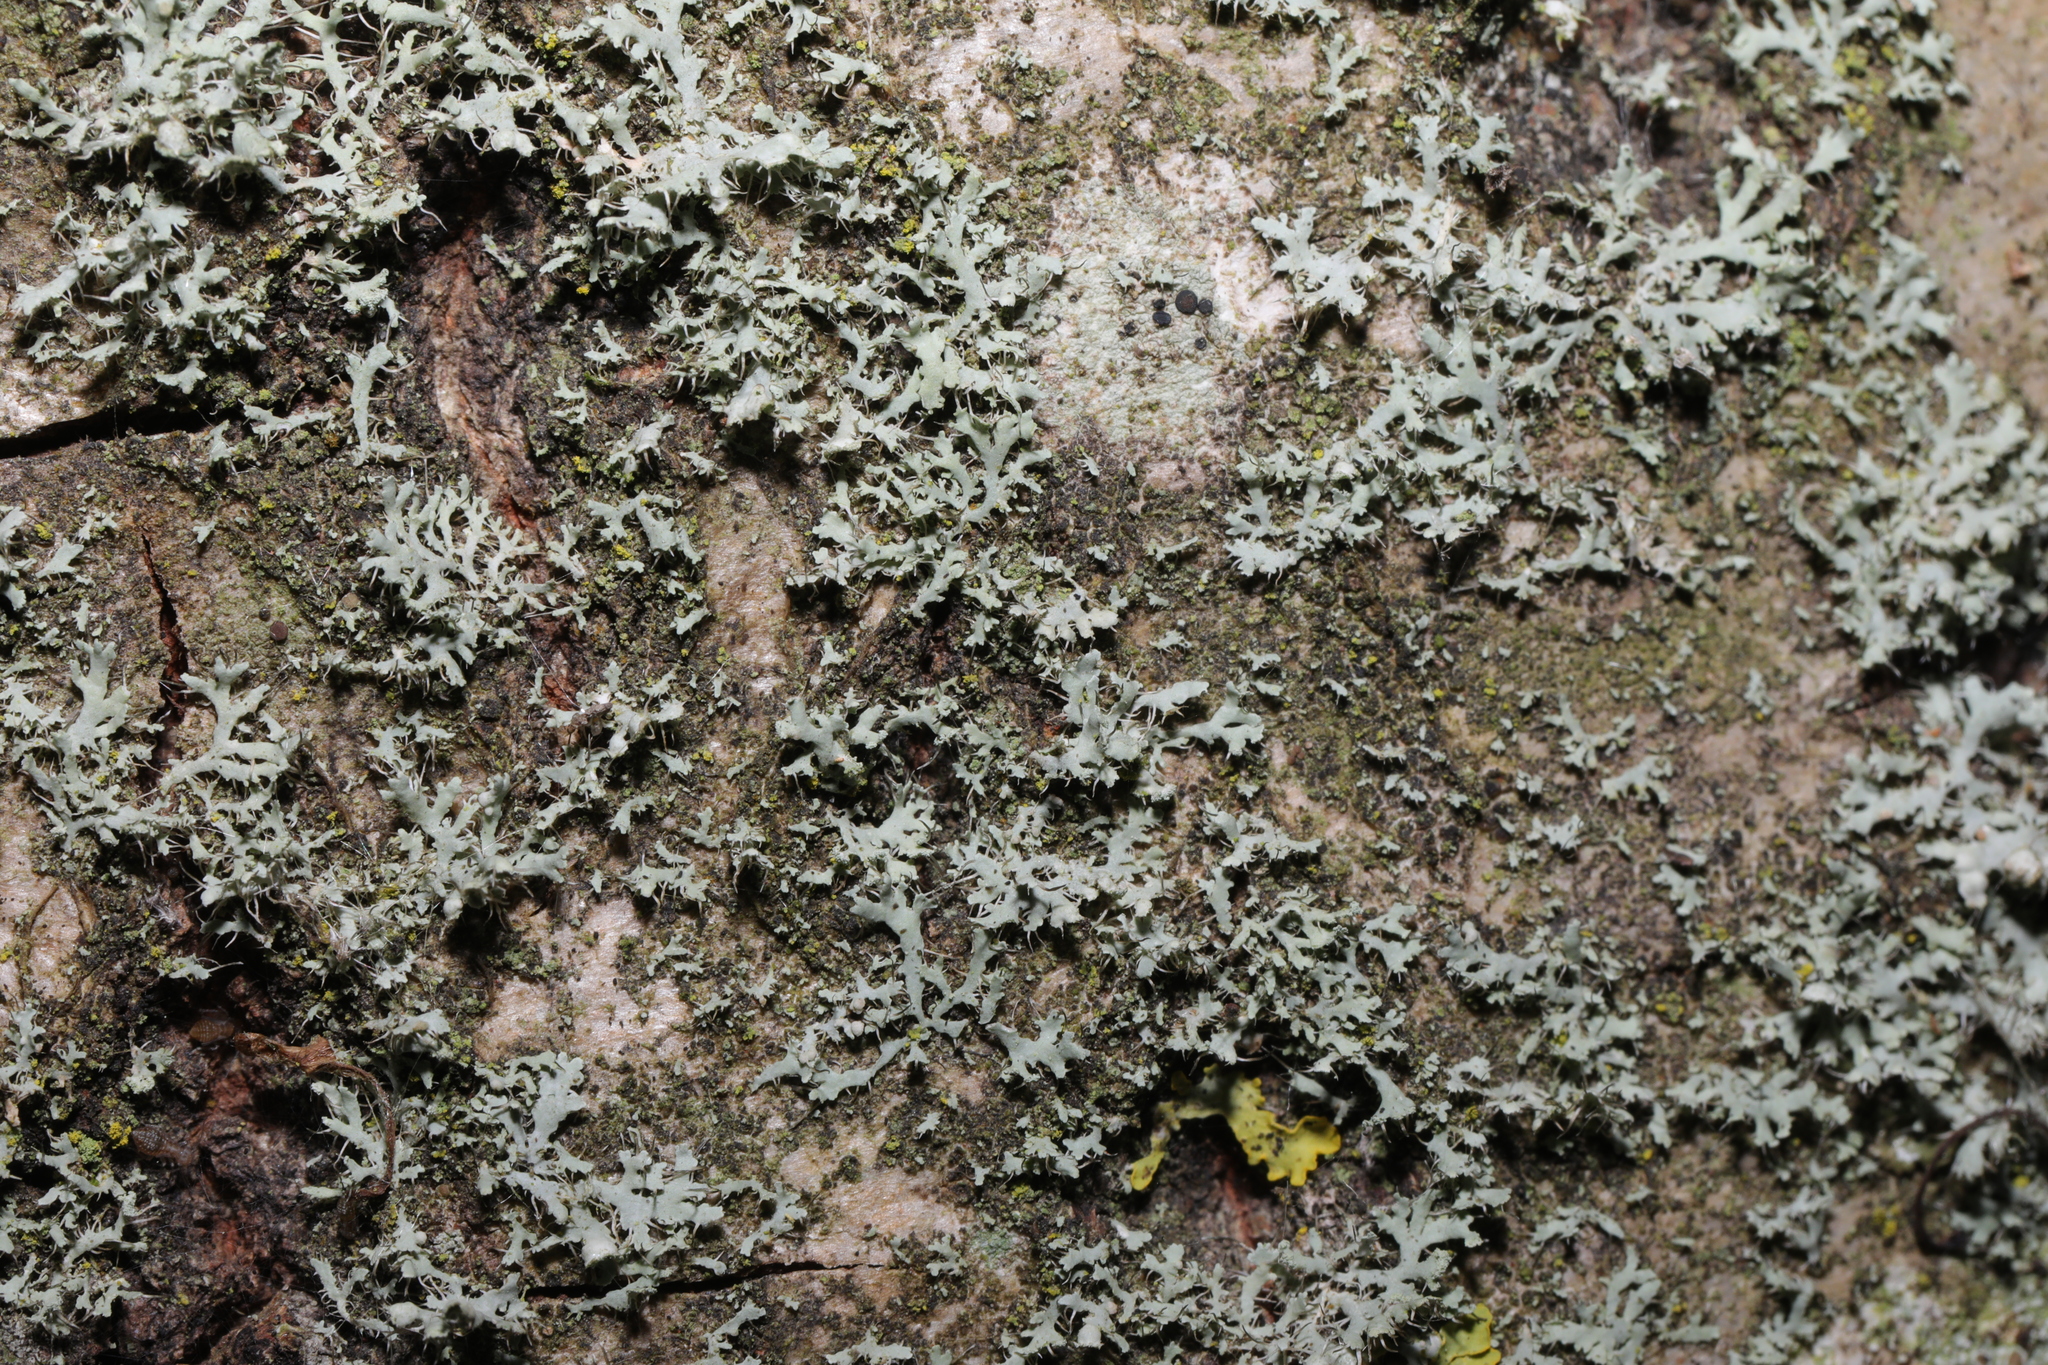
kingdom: Fungi
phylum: Ascomycota
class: Lecanoromycetes
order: Caliciales
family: Physciaceae
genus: Physcia
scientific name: Physcia tenella
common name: Fringed rosette lichen
